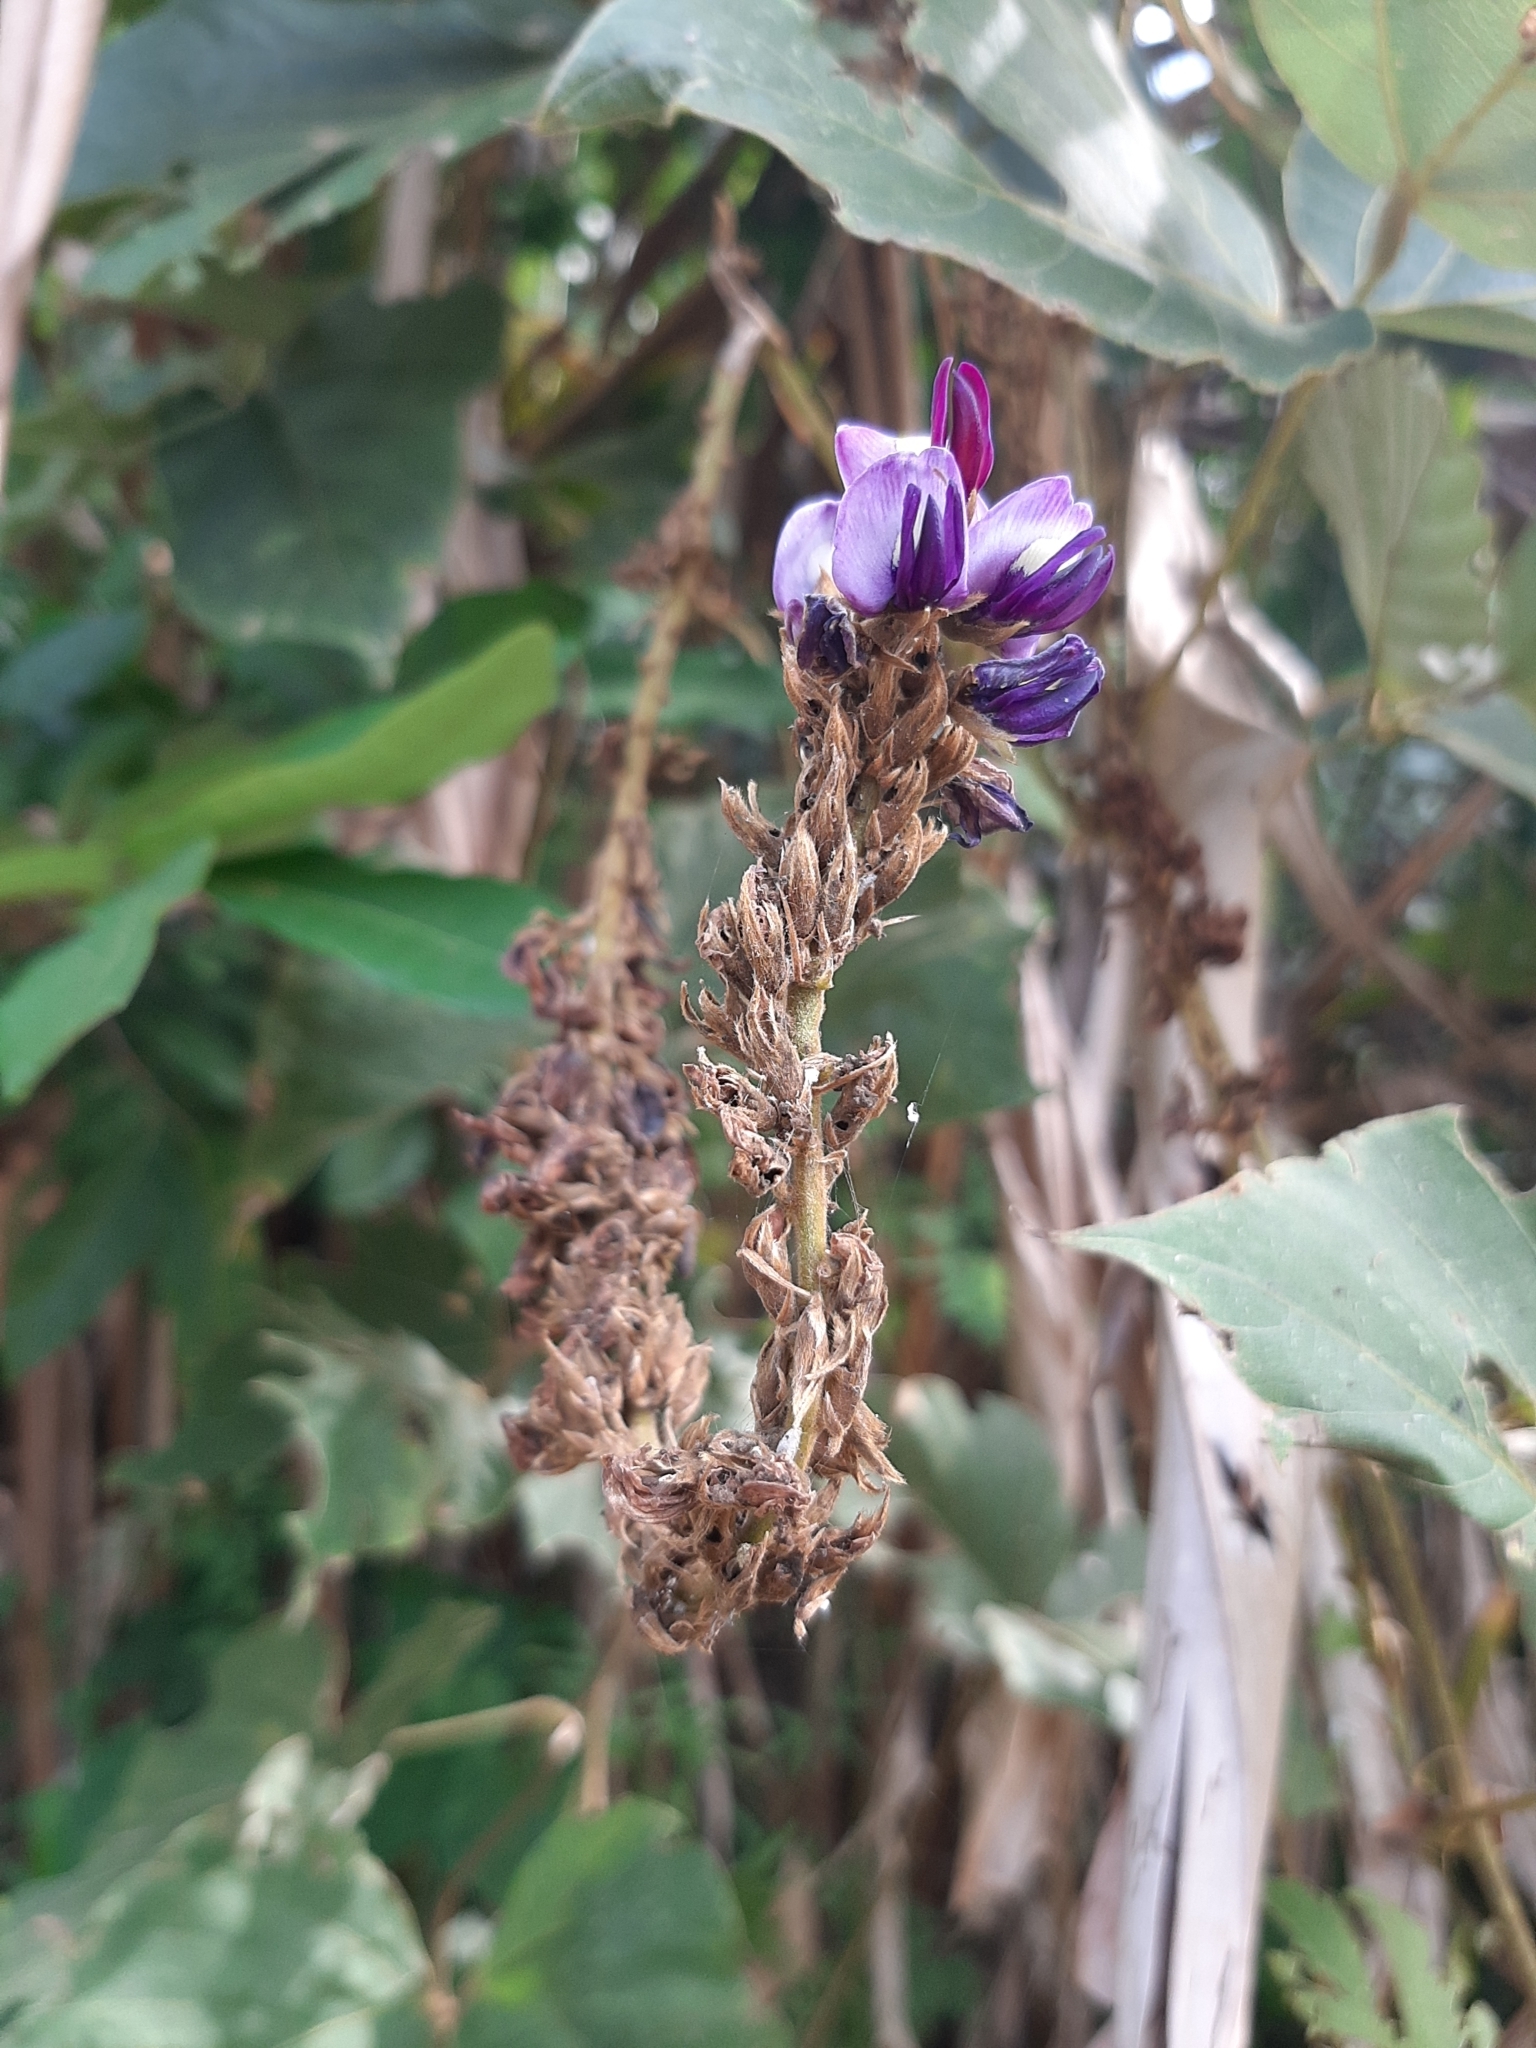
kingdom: Plantae
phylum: Tracheophyta
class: Magnoliopsida
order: Fabales
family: Fabaceae
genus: Pueraria
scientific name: Pueraria montana
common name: Kudzu
